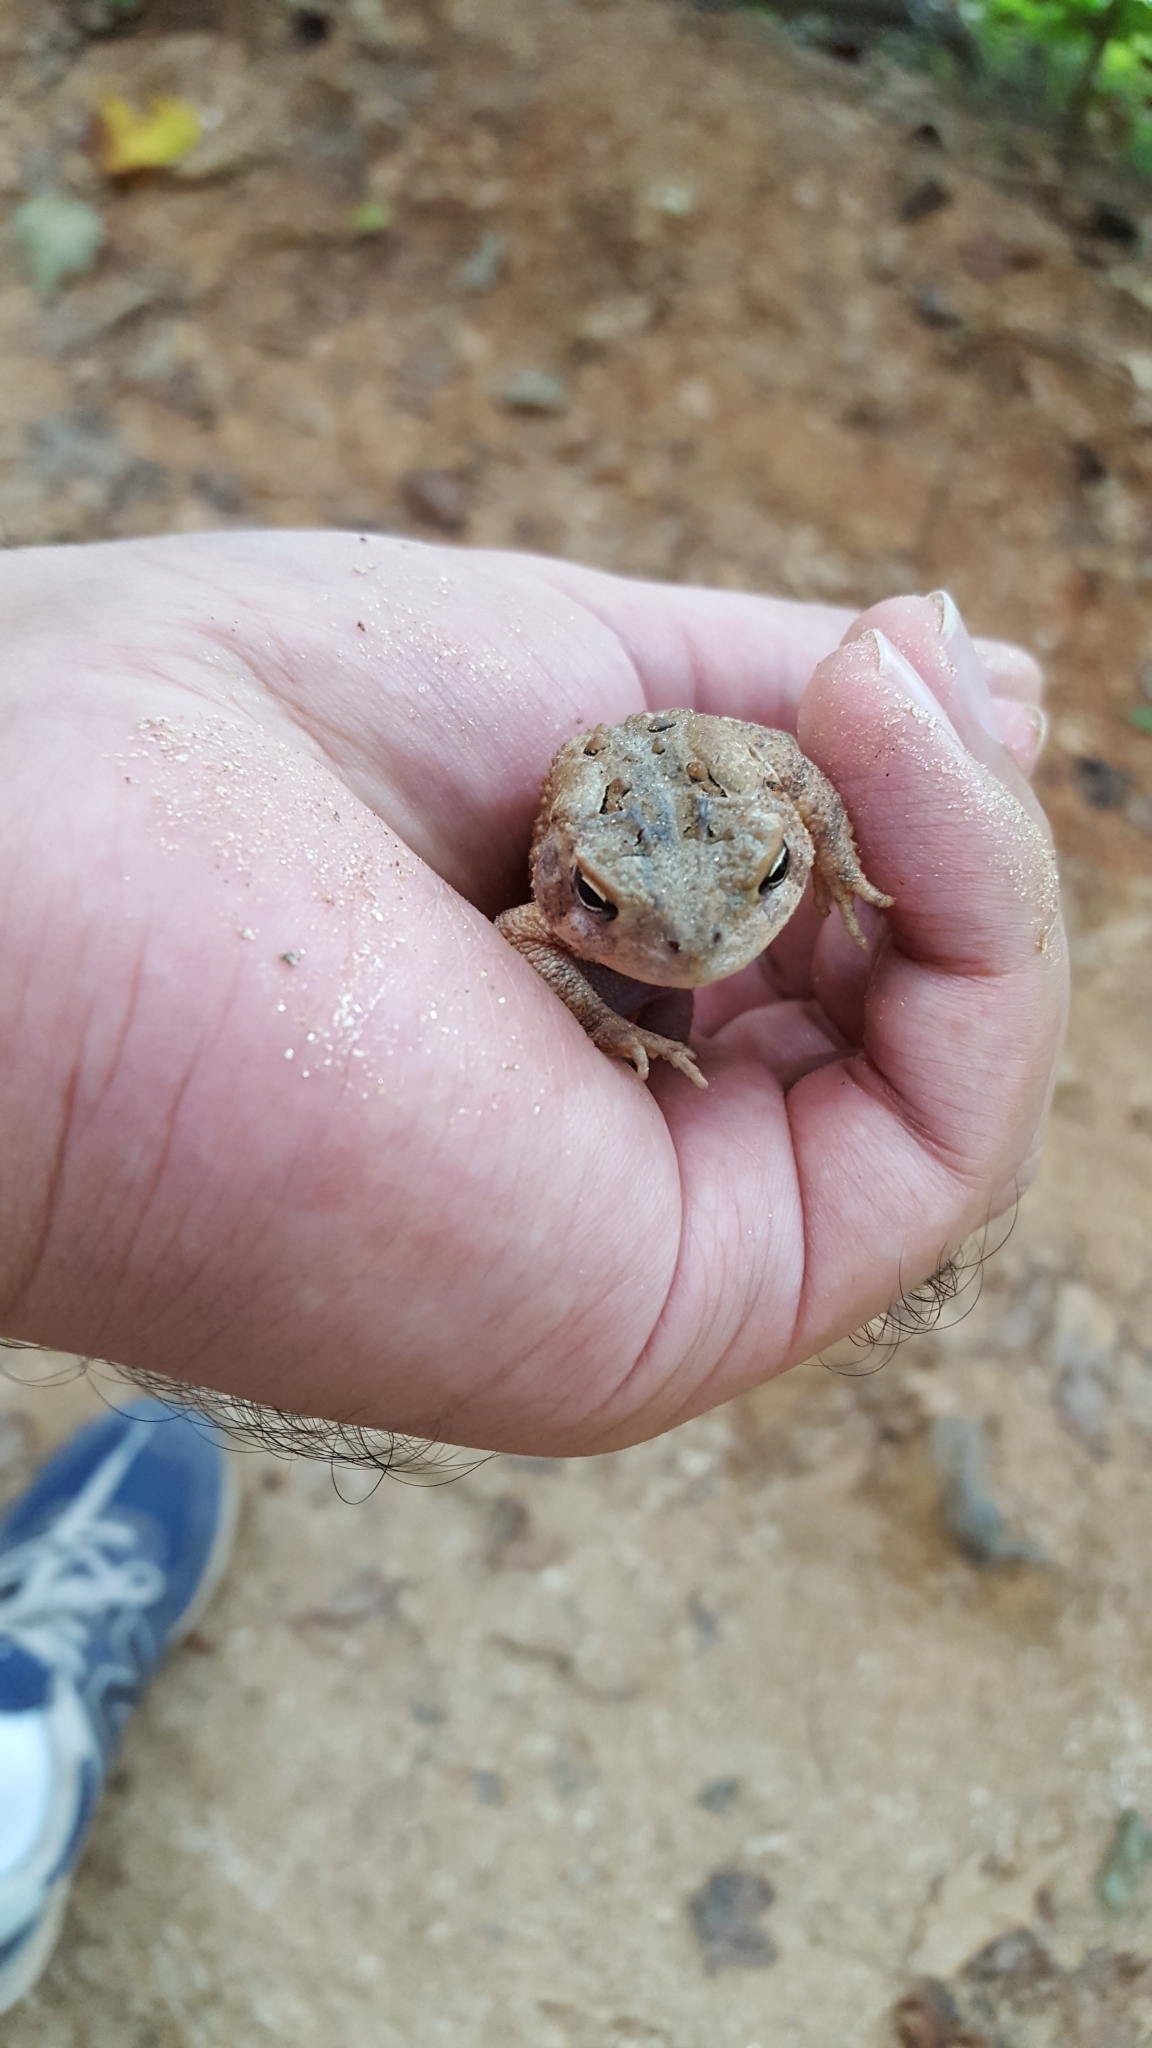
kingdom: Animalia
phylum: Chordata
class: Amphibia
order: Anura
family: Bufonidae
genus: Anaxyrus
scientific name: Anaxyrus americanus
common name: American toad
